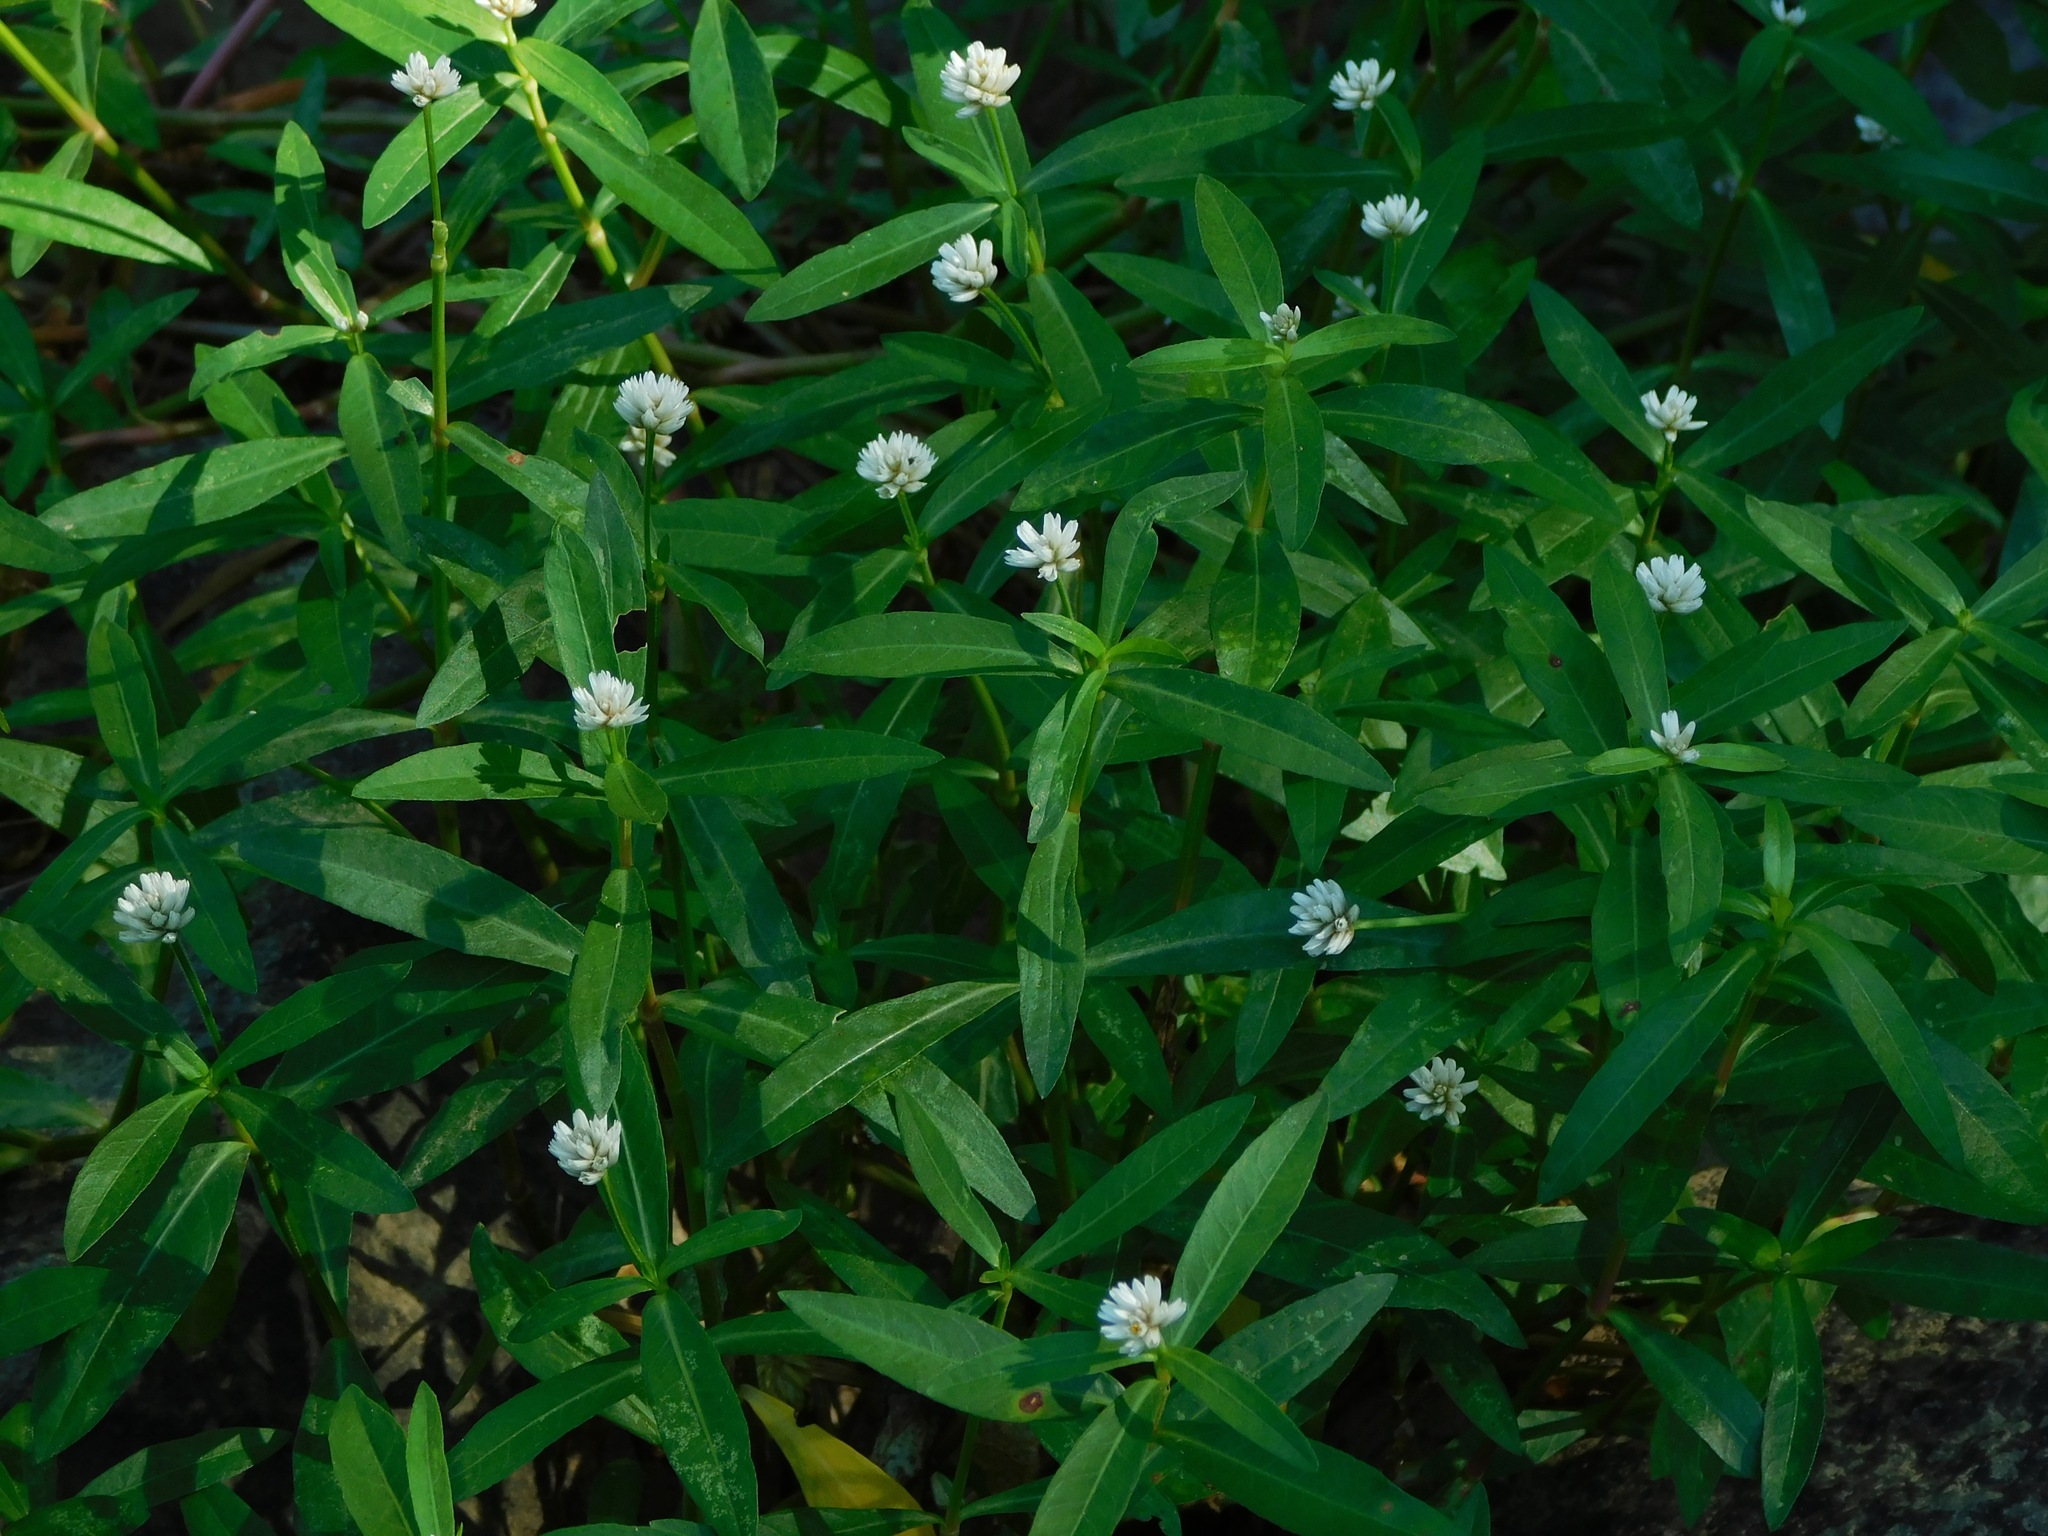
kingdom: Plantae
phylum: Tracheophyta
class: Magnoliopsida
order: Caryophyllales
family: Amaranthaceae
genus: Alternanthera
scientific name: Alternanthera philoxeroides
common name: Alligatorweed
